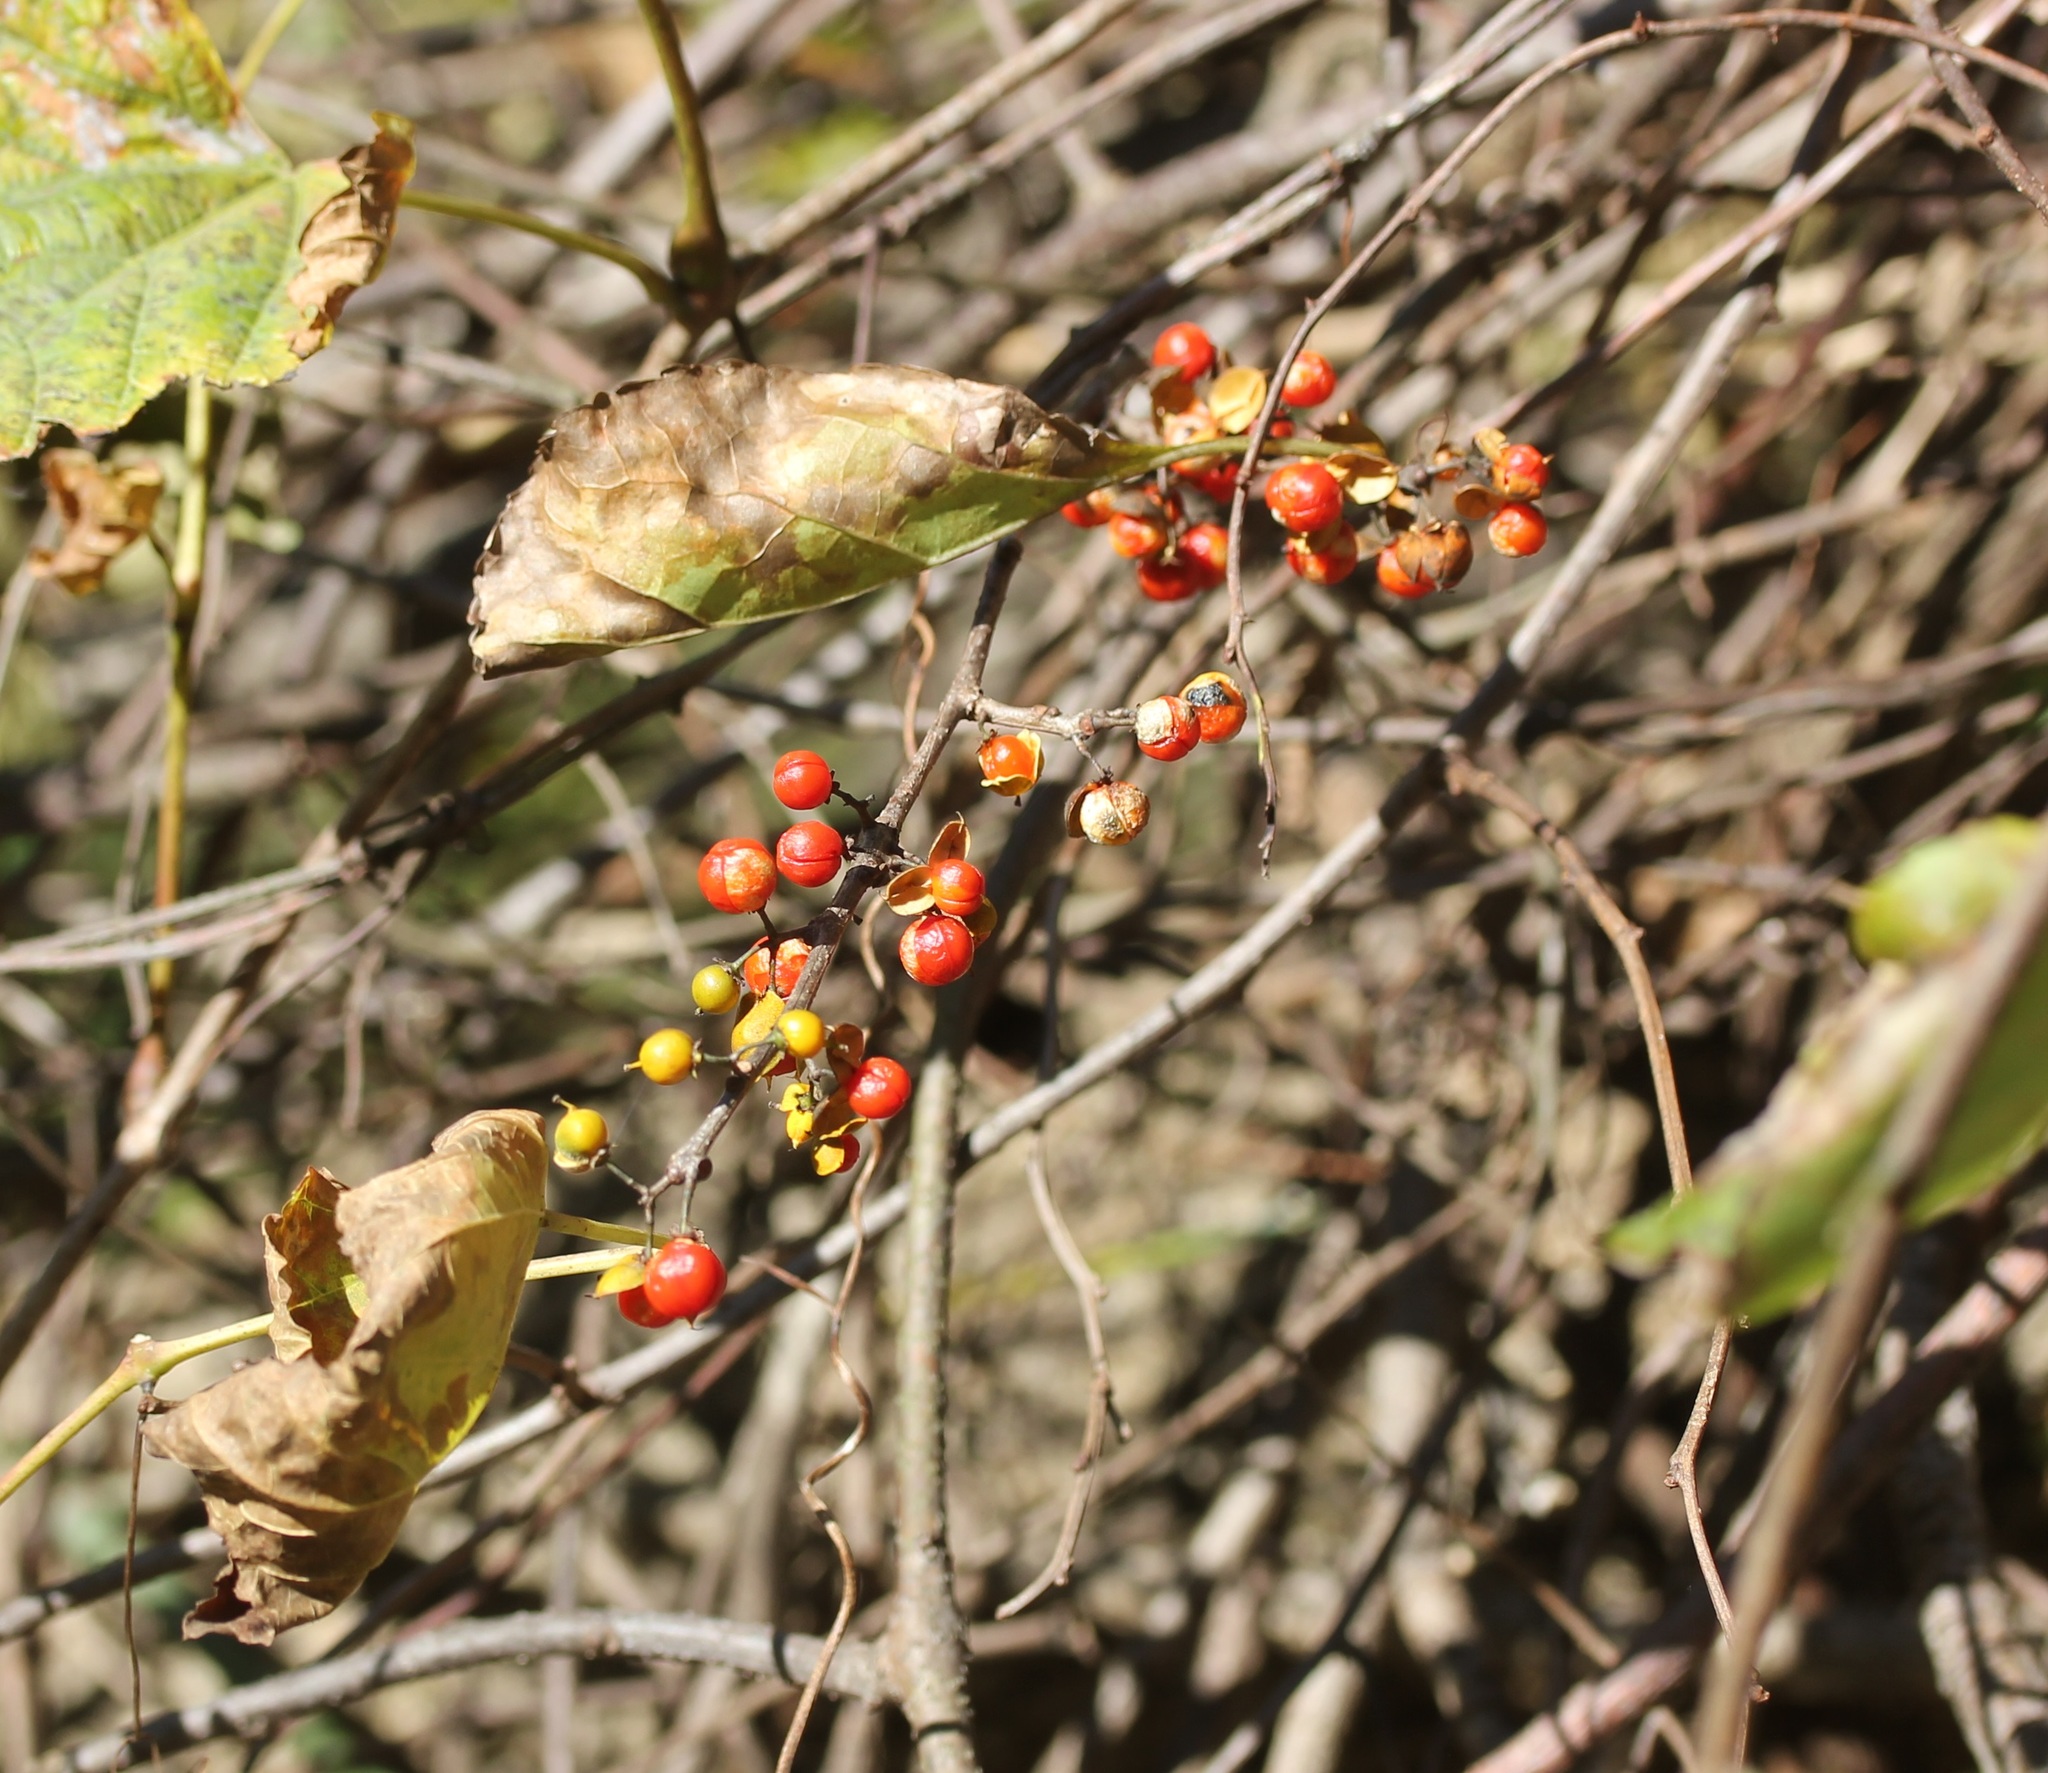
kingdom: Plantae
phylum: Tracheophyta
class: Magnoliopsida
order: Celastrales
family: Celastraceae
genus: Celastrus
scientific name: Celastrus orbiculatus
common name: Oriental bittersweet
